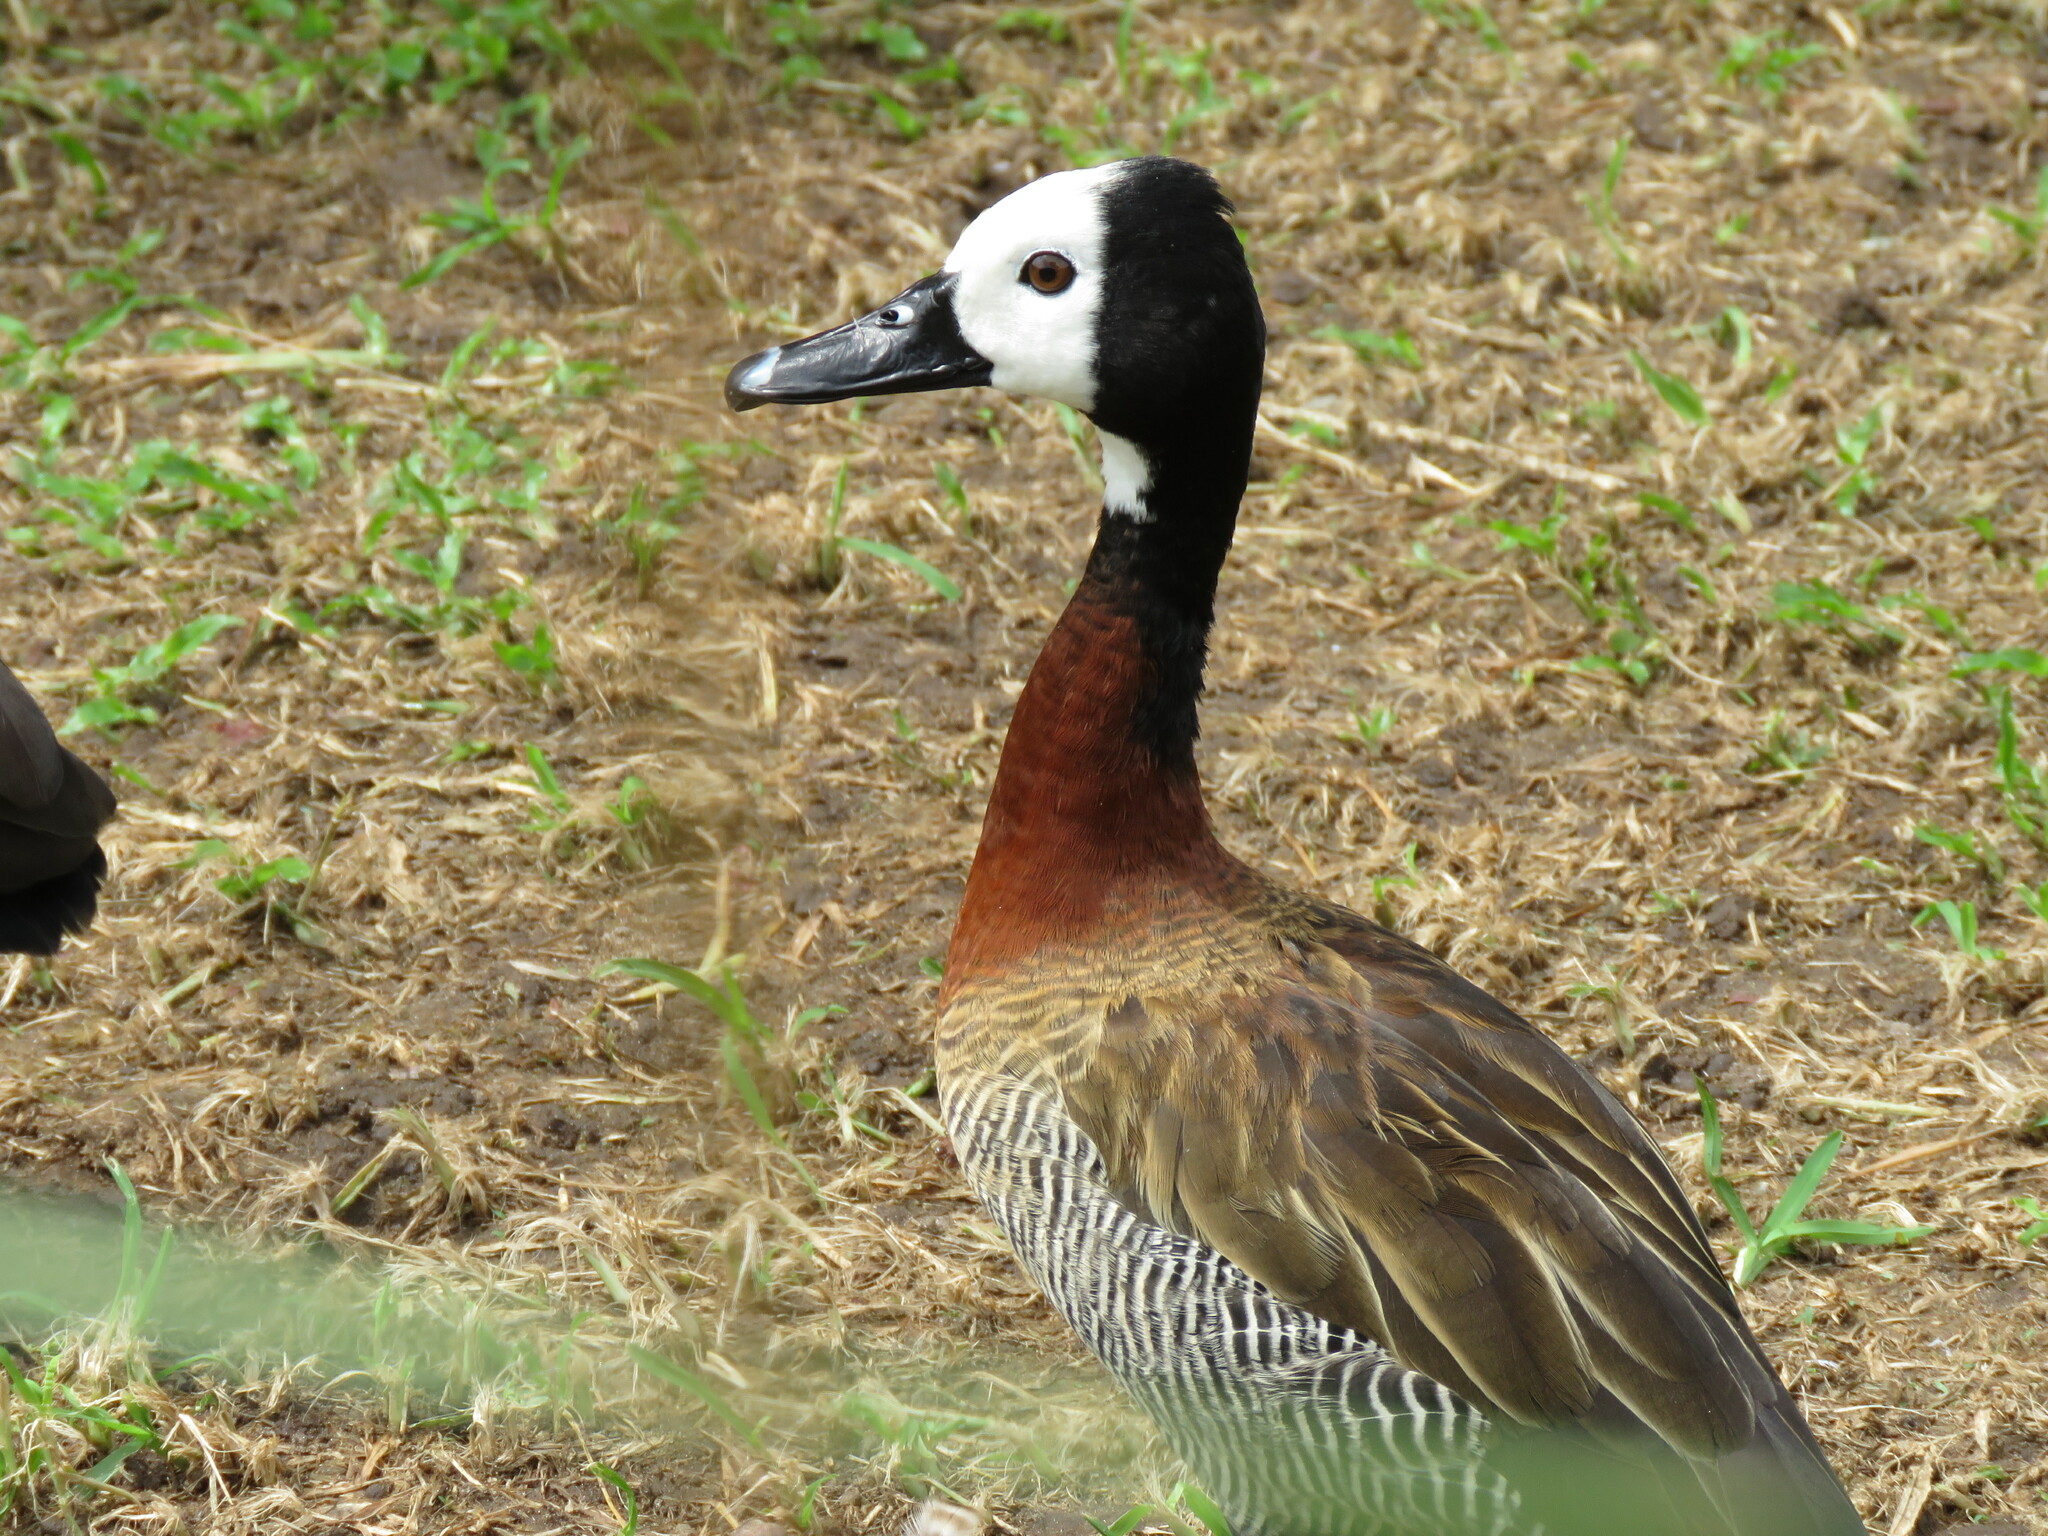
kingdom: Animalia
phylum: Chordata
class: Aves
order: Anseriformes
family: Anatidae
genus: Dendrocygna
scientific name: Dendrocygna viduata
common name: White-faced whistling duck
